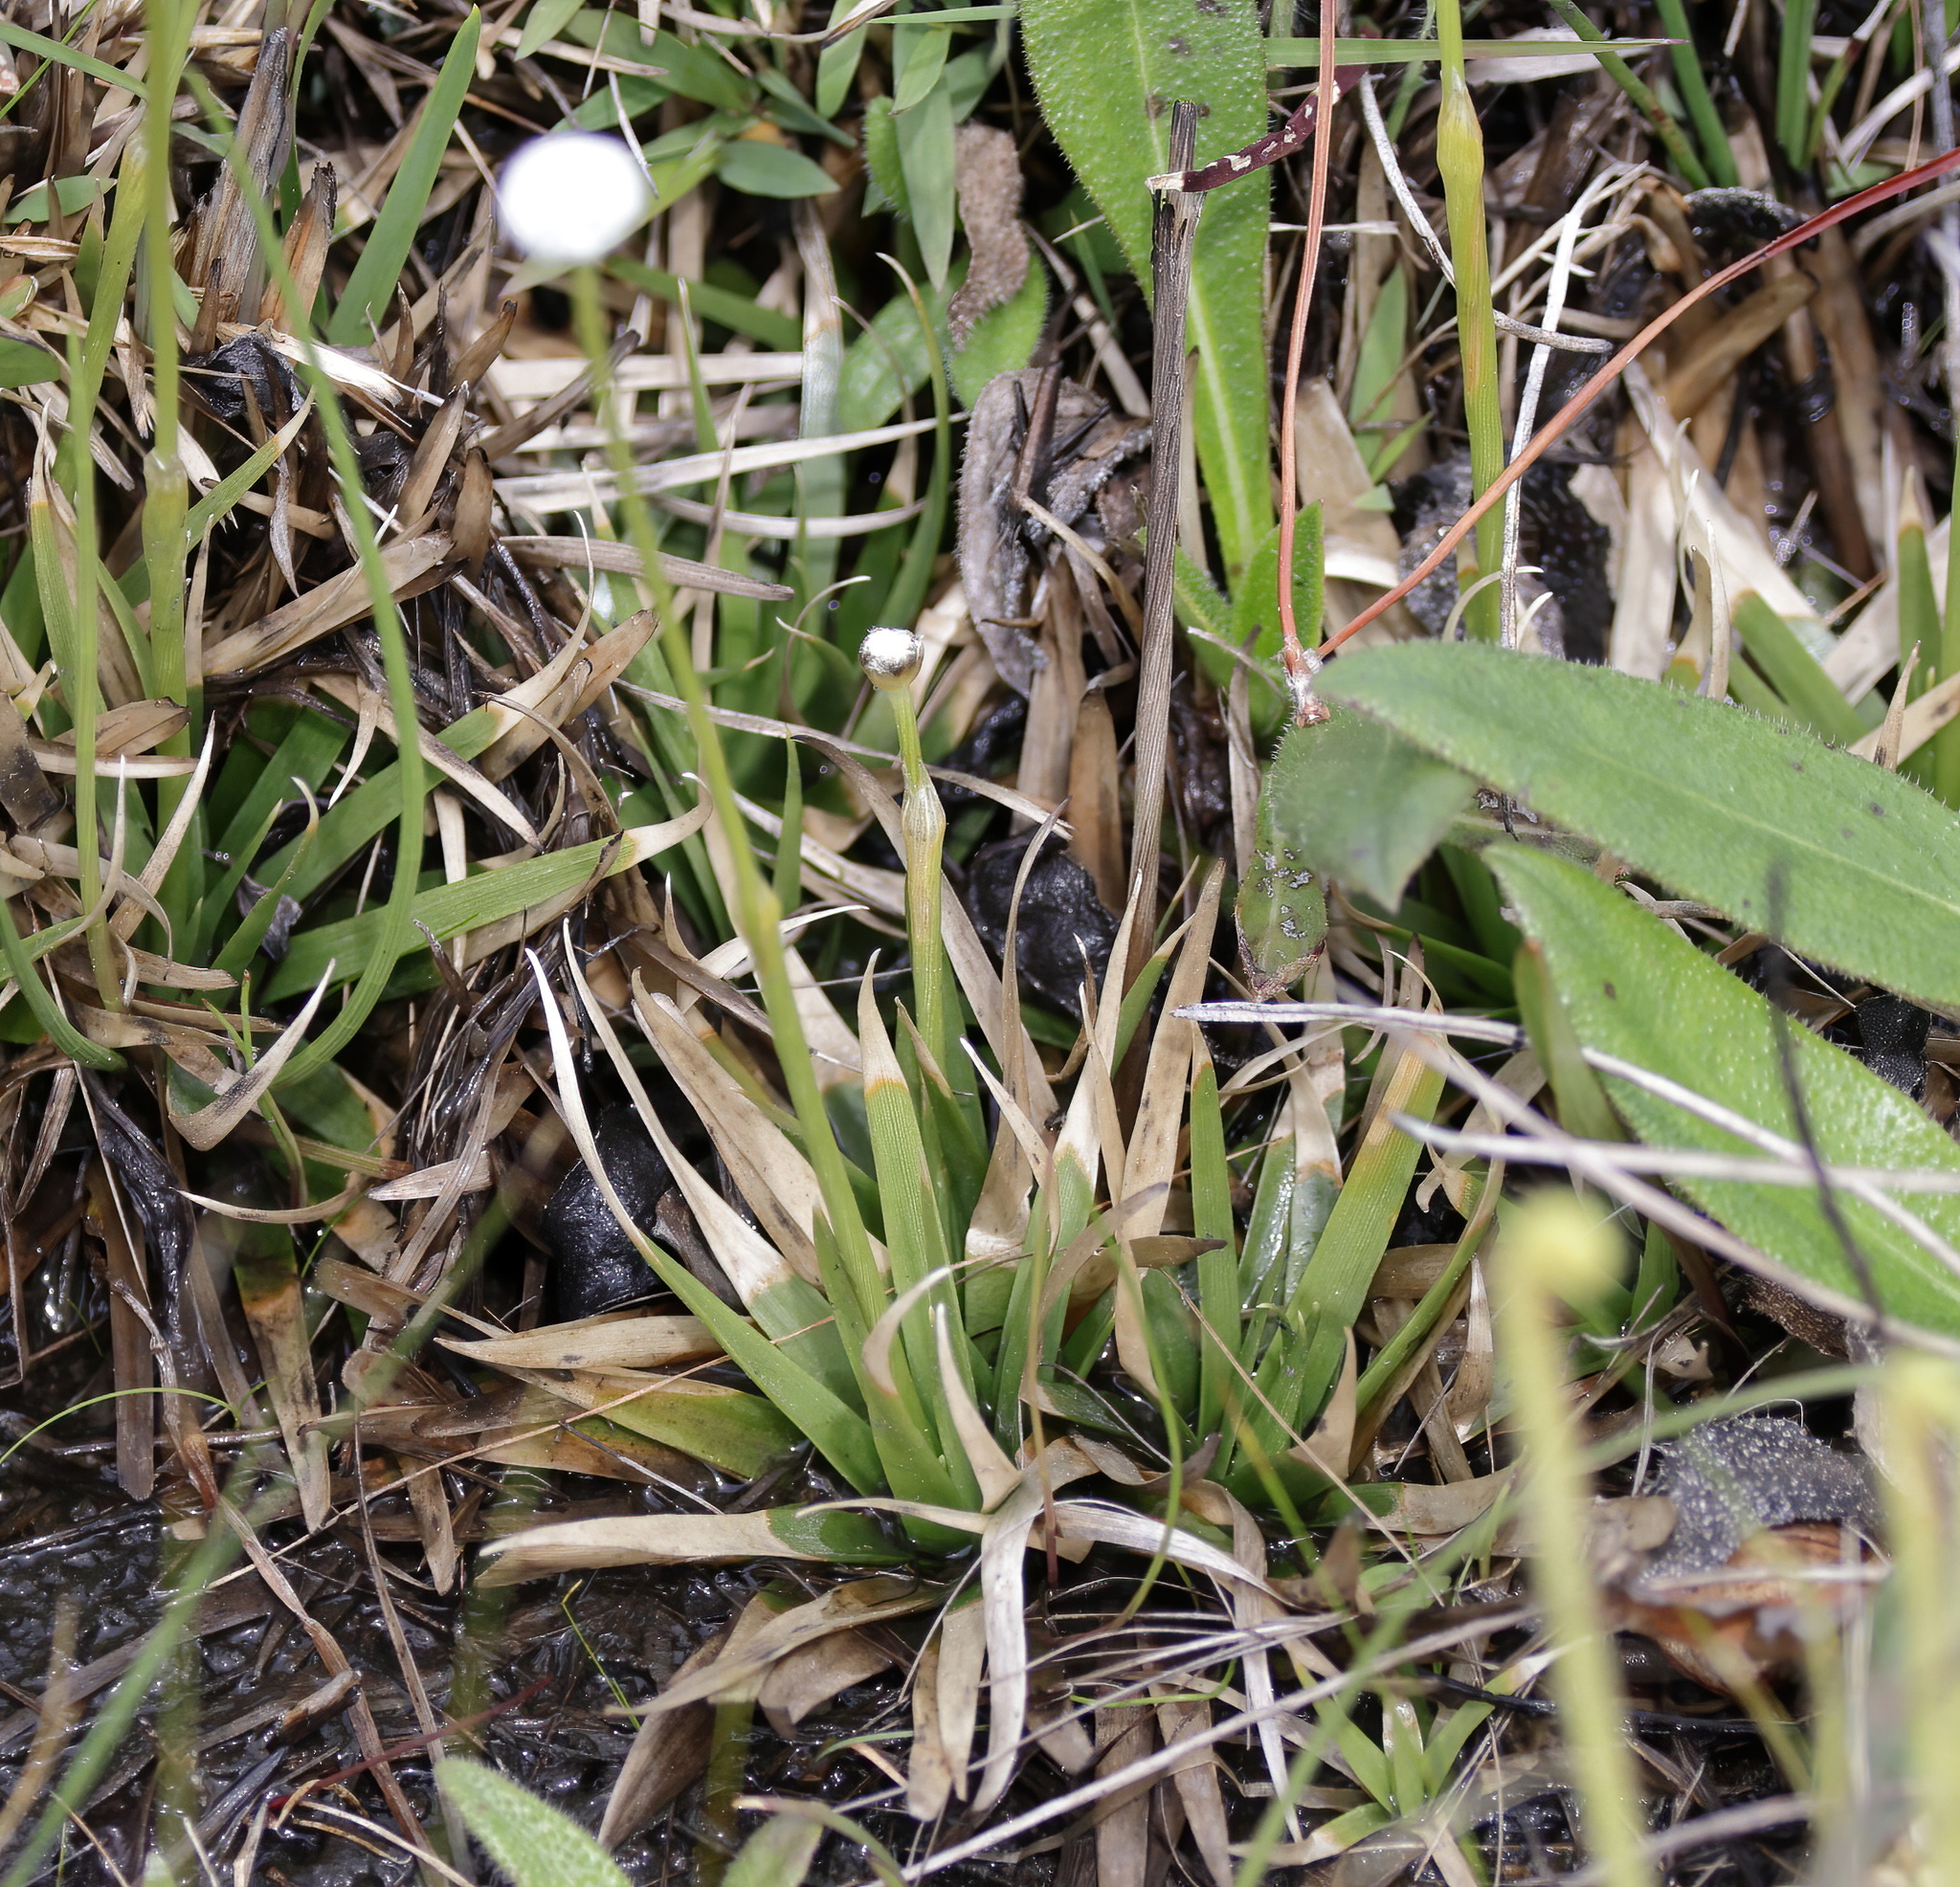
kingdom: Plantae
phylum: Tracheophyta
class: Liliopsida
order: Poales
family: Eriocaulaceae
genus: Eriocaulon
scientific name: Eriocaulon compressum
